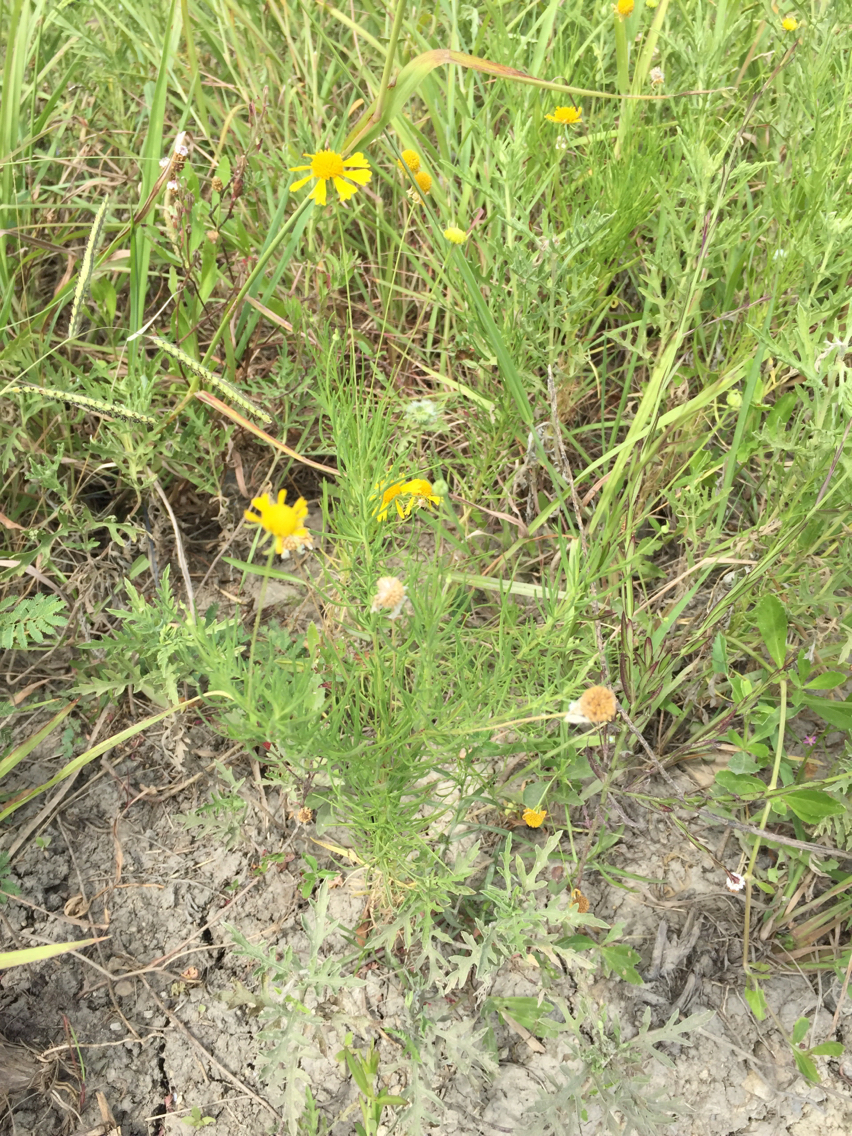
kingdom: Plantae
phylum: Tracheophyta
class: Magnoliopsida
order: Asterales
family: Asteraceae
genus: Helenium
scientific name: Helenium amarum
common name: Bitter sneezeweed
